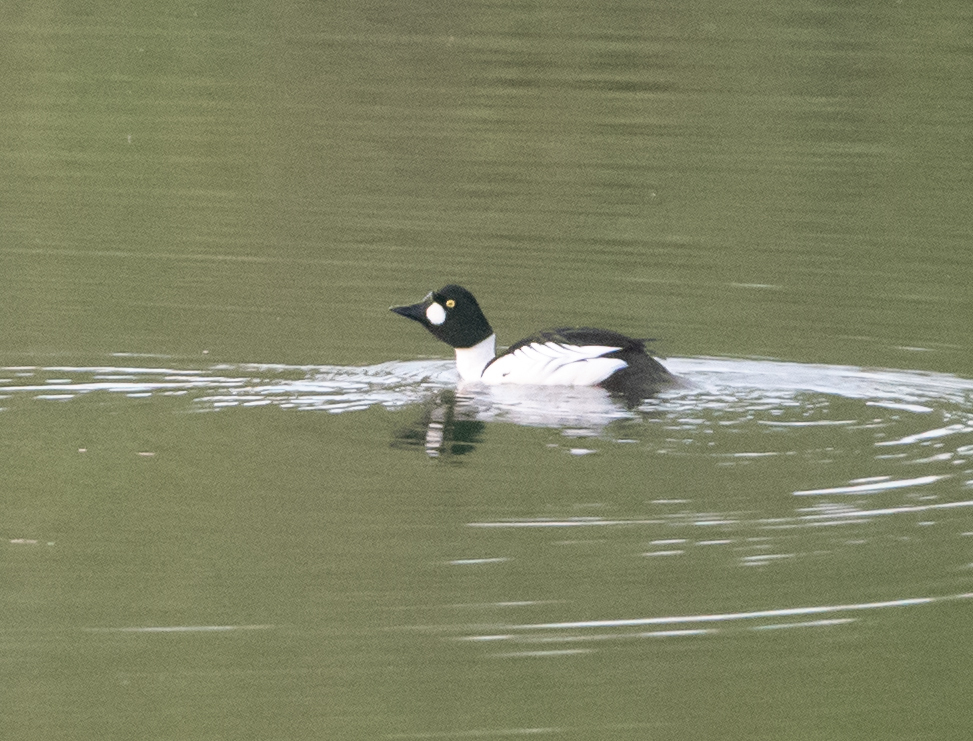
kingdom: Animalia
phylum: Chordata
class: Aves
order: Anseriformes
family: Anatidae
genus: Bucephala
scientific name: Bucephala clangula
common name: Common goldeneye
